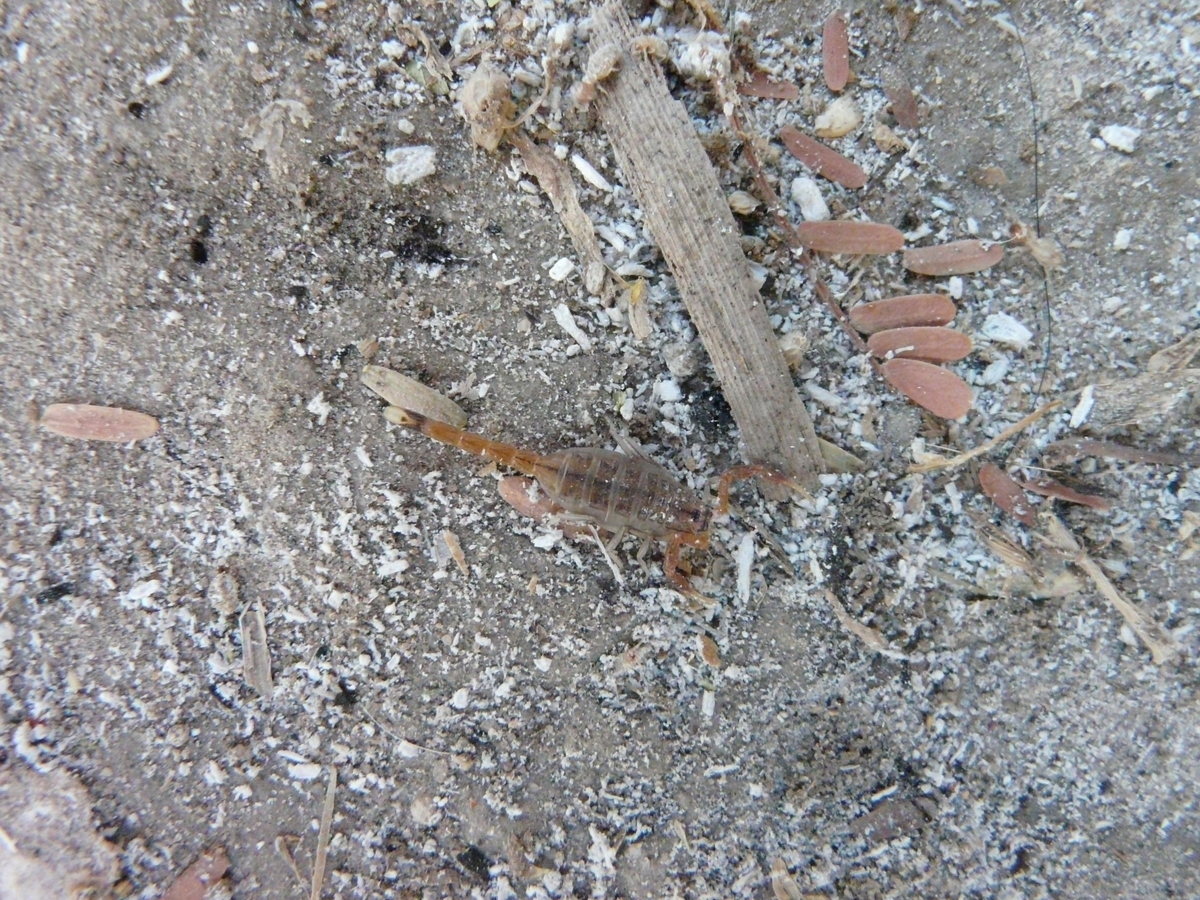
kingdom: Animalia
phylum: Arthropoda
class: Arachnida
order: Scorpiones
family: Buthidae
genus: Uroplectes
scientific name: Uroplectes planimanus
